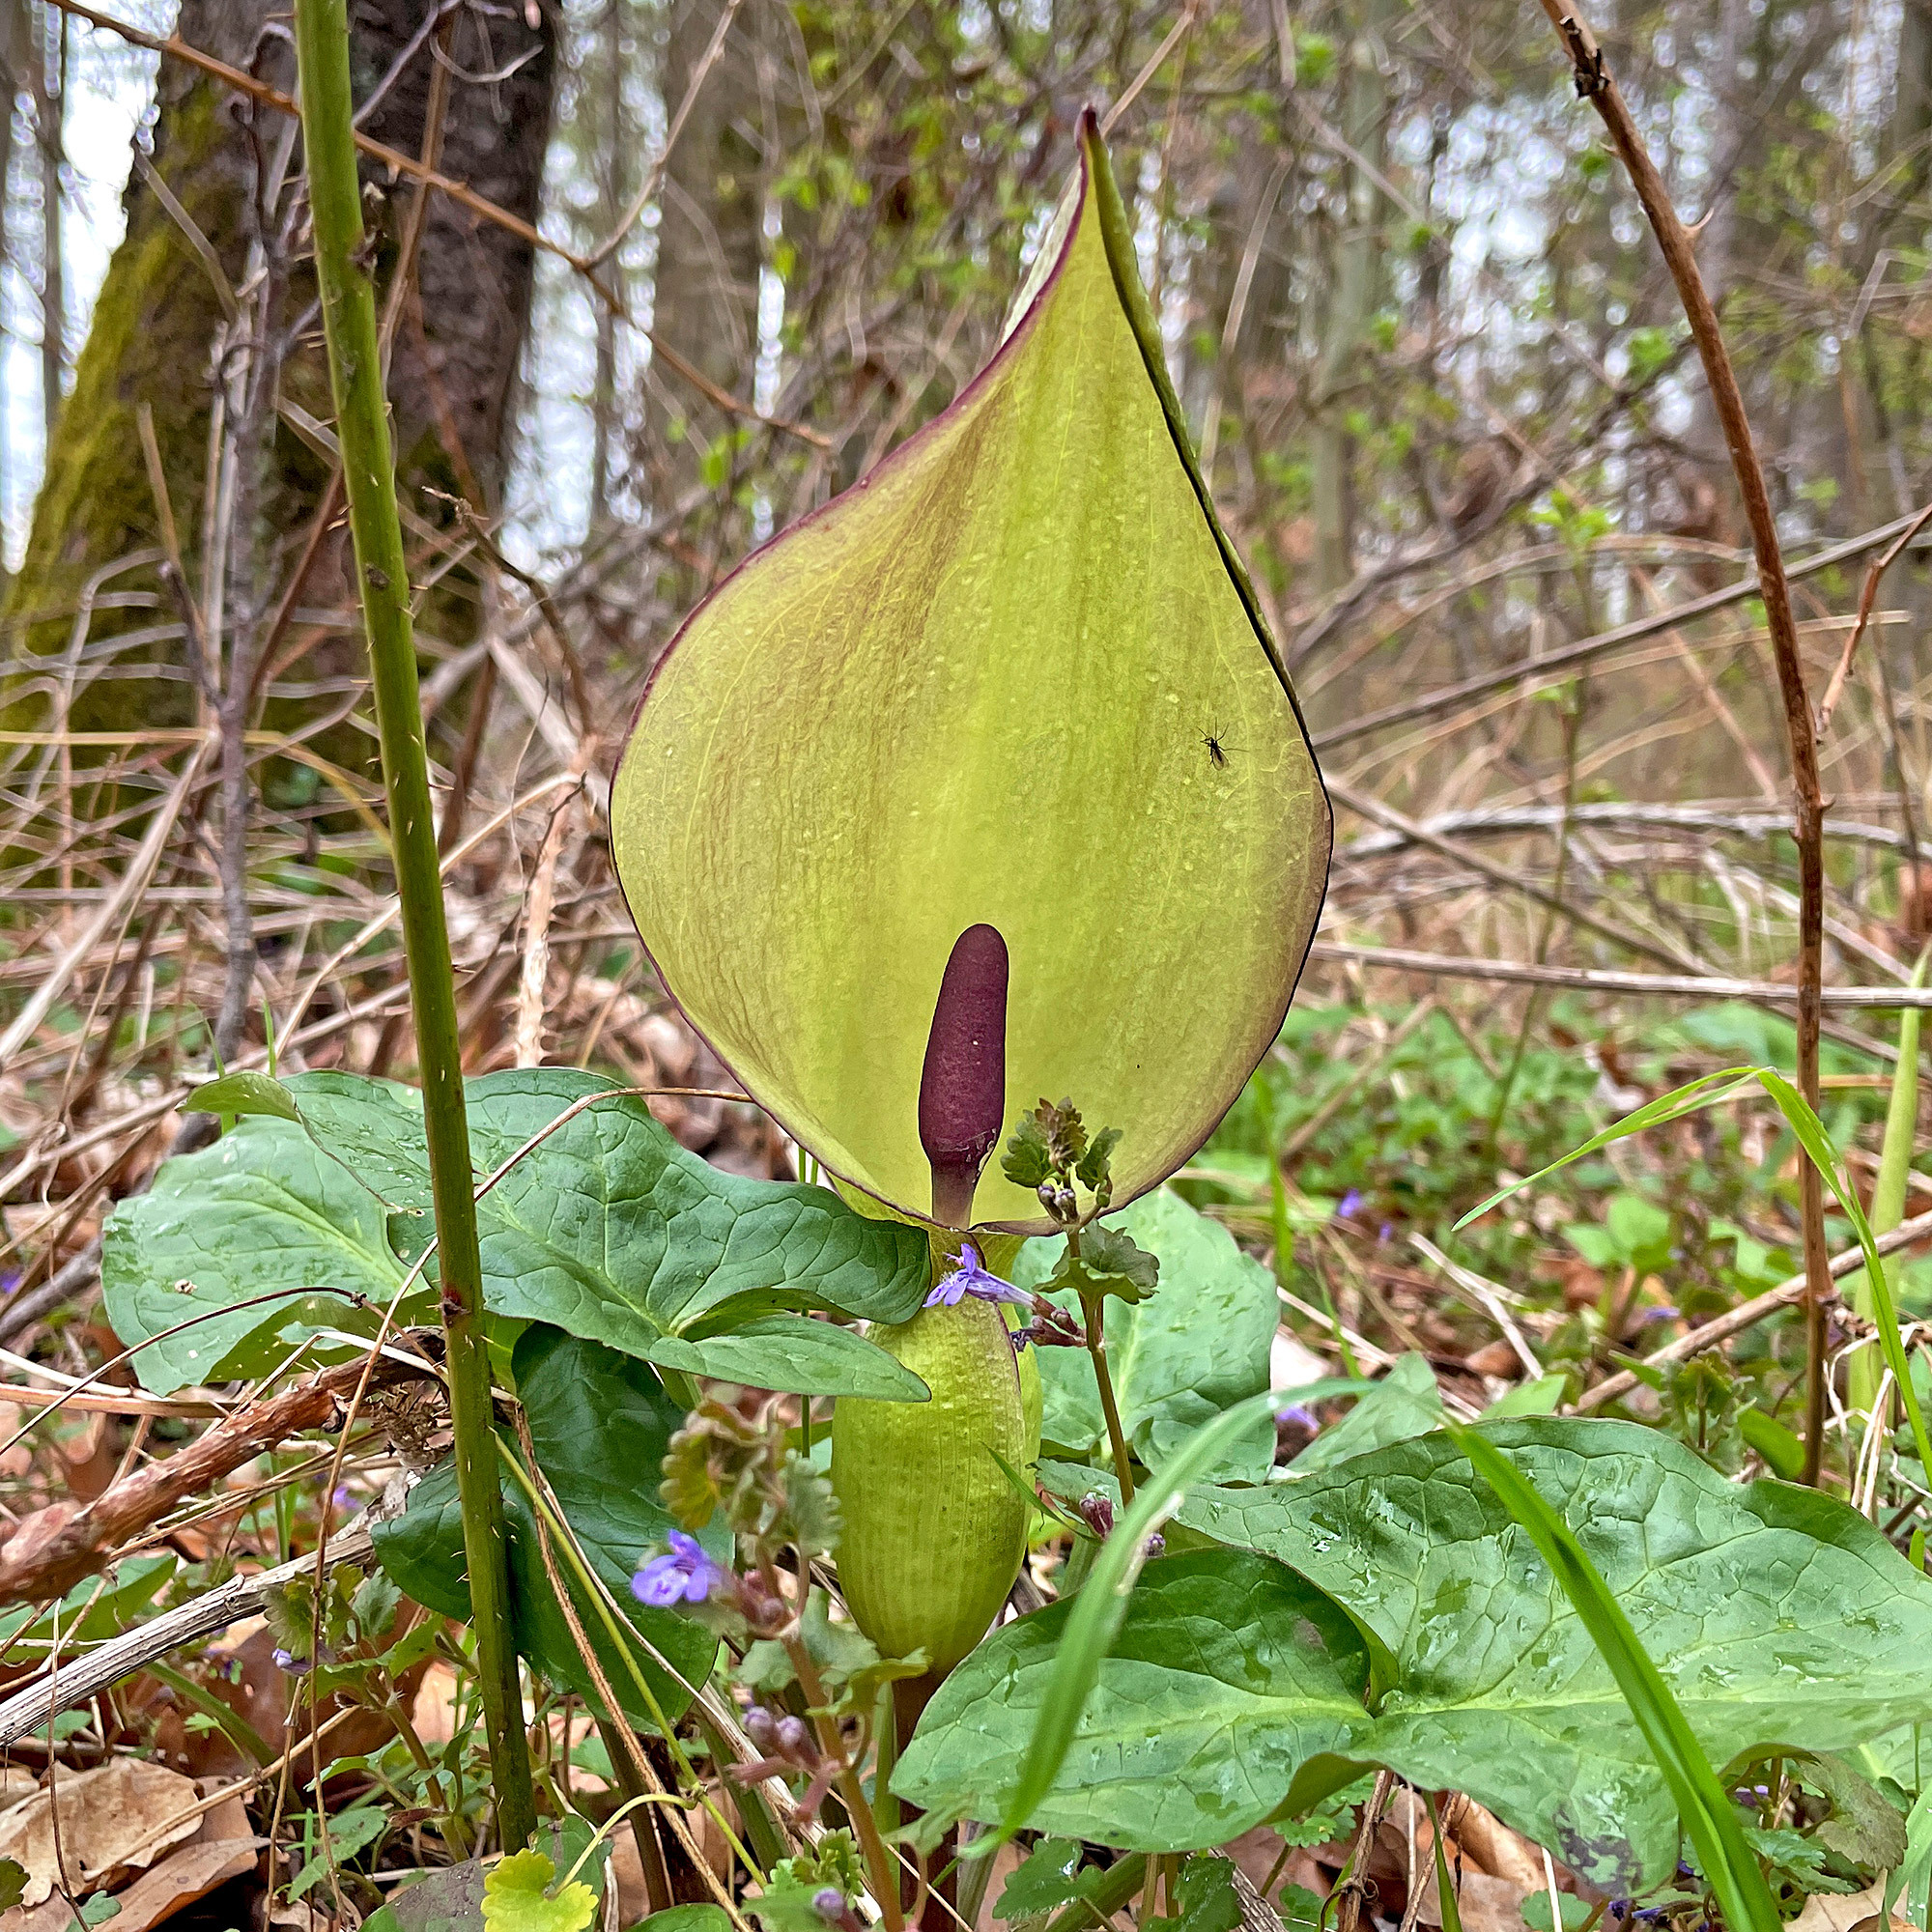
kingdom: Plantae
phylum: Tracheophyta
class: Liliopsida
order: Alismatales
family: Araceae
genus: Arum
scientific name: Arum maculatum
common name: Lords-and-ladies
